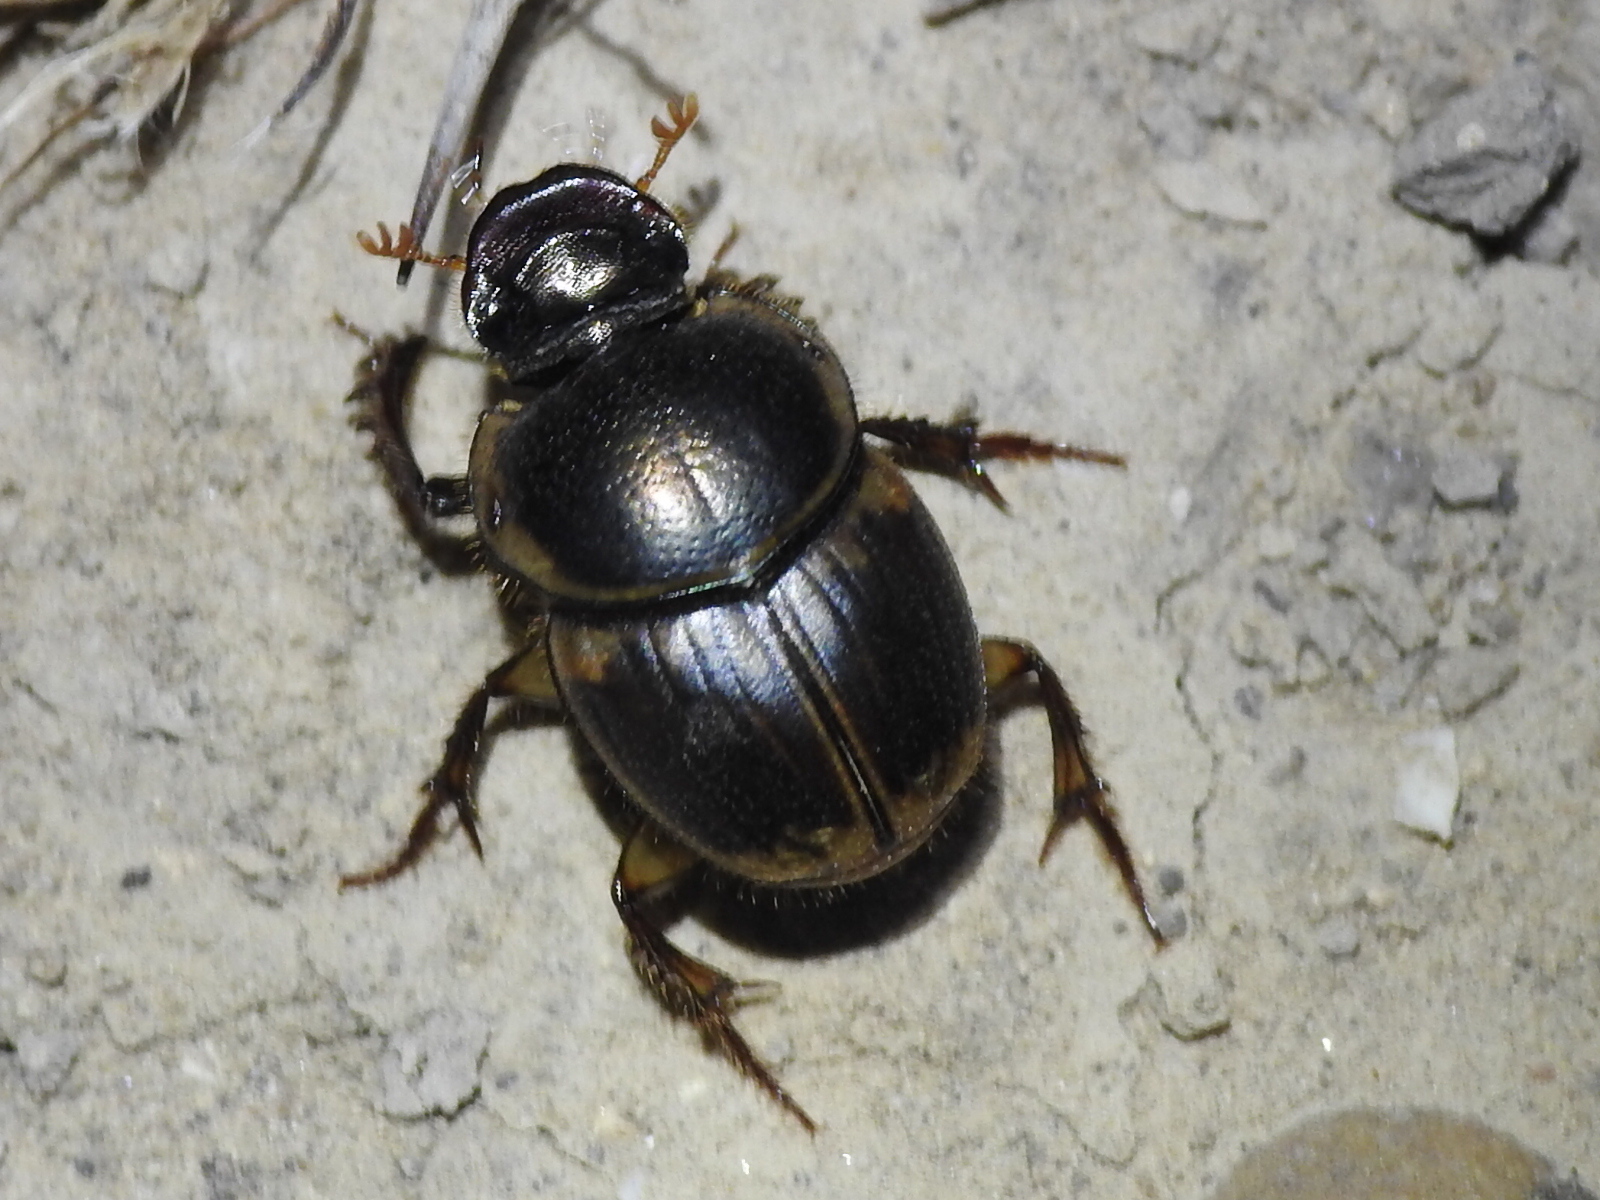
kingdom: Animalia
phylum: Arthropoda
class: Insecta
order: Coleoptera
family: Scarabaeidae
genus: Digitonthophagus
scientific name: Digitonthophagus gazella
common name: Brown dung beetle
